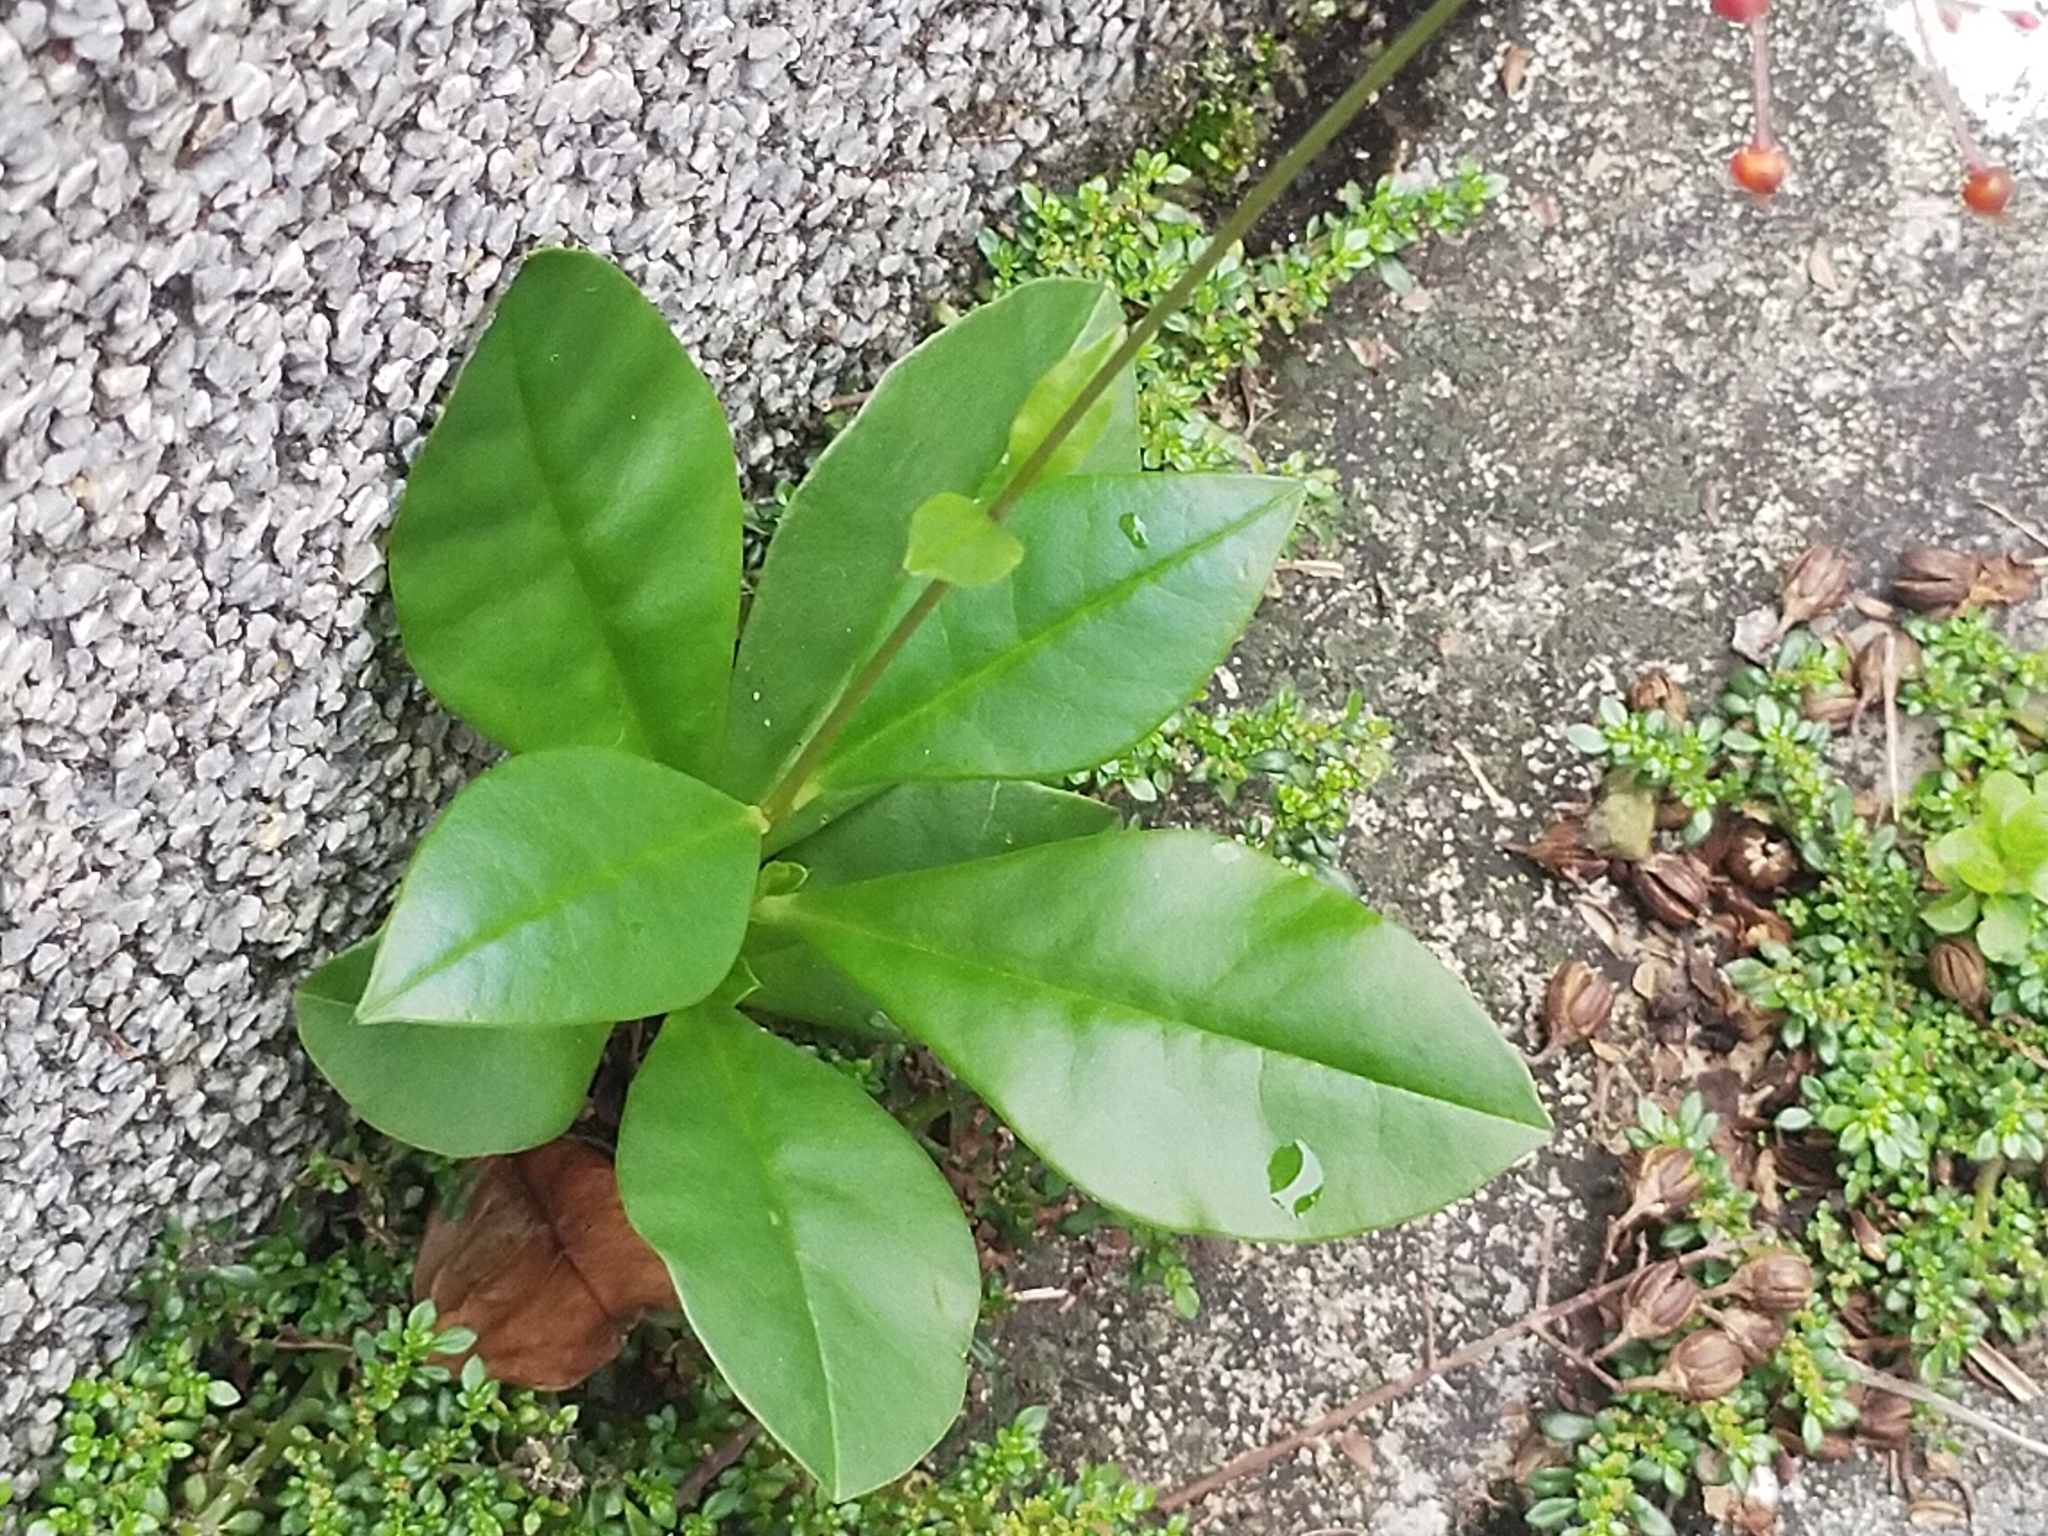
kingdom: Plantae
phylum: Tracheophyta
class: Magnoliopsida
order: Caryophyllales
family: Talinaceae
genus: Talinum
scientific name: Talinum paniculatum
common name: Jewels of opar
